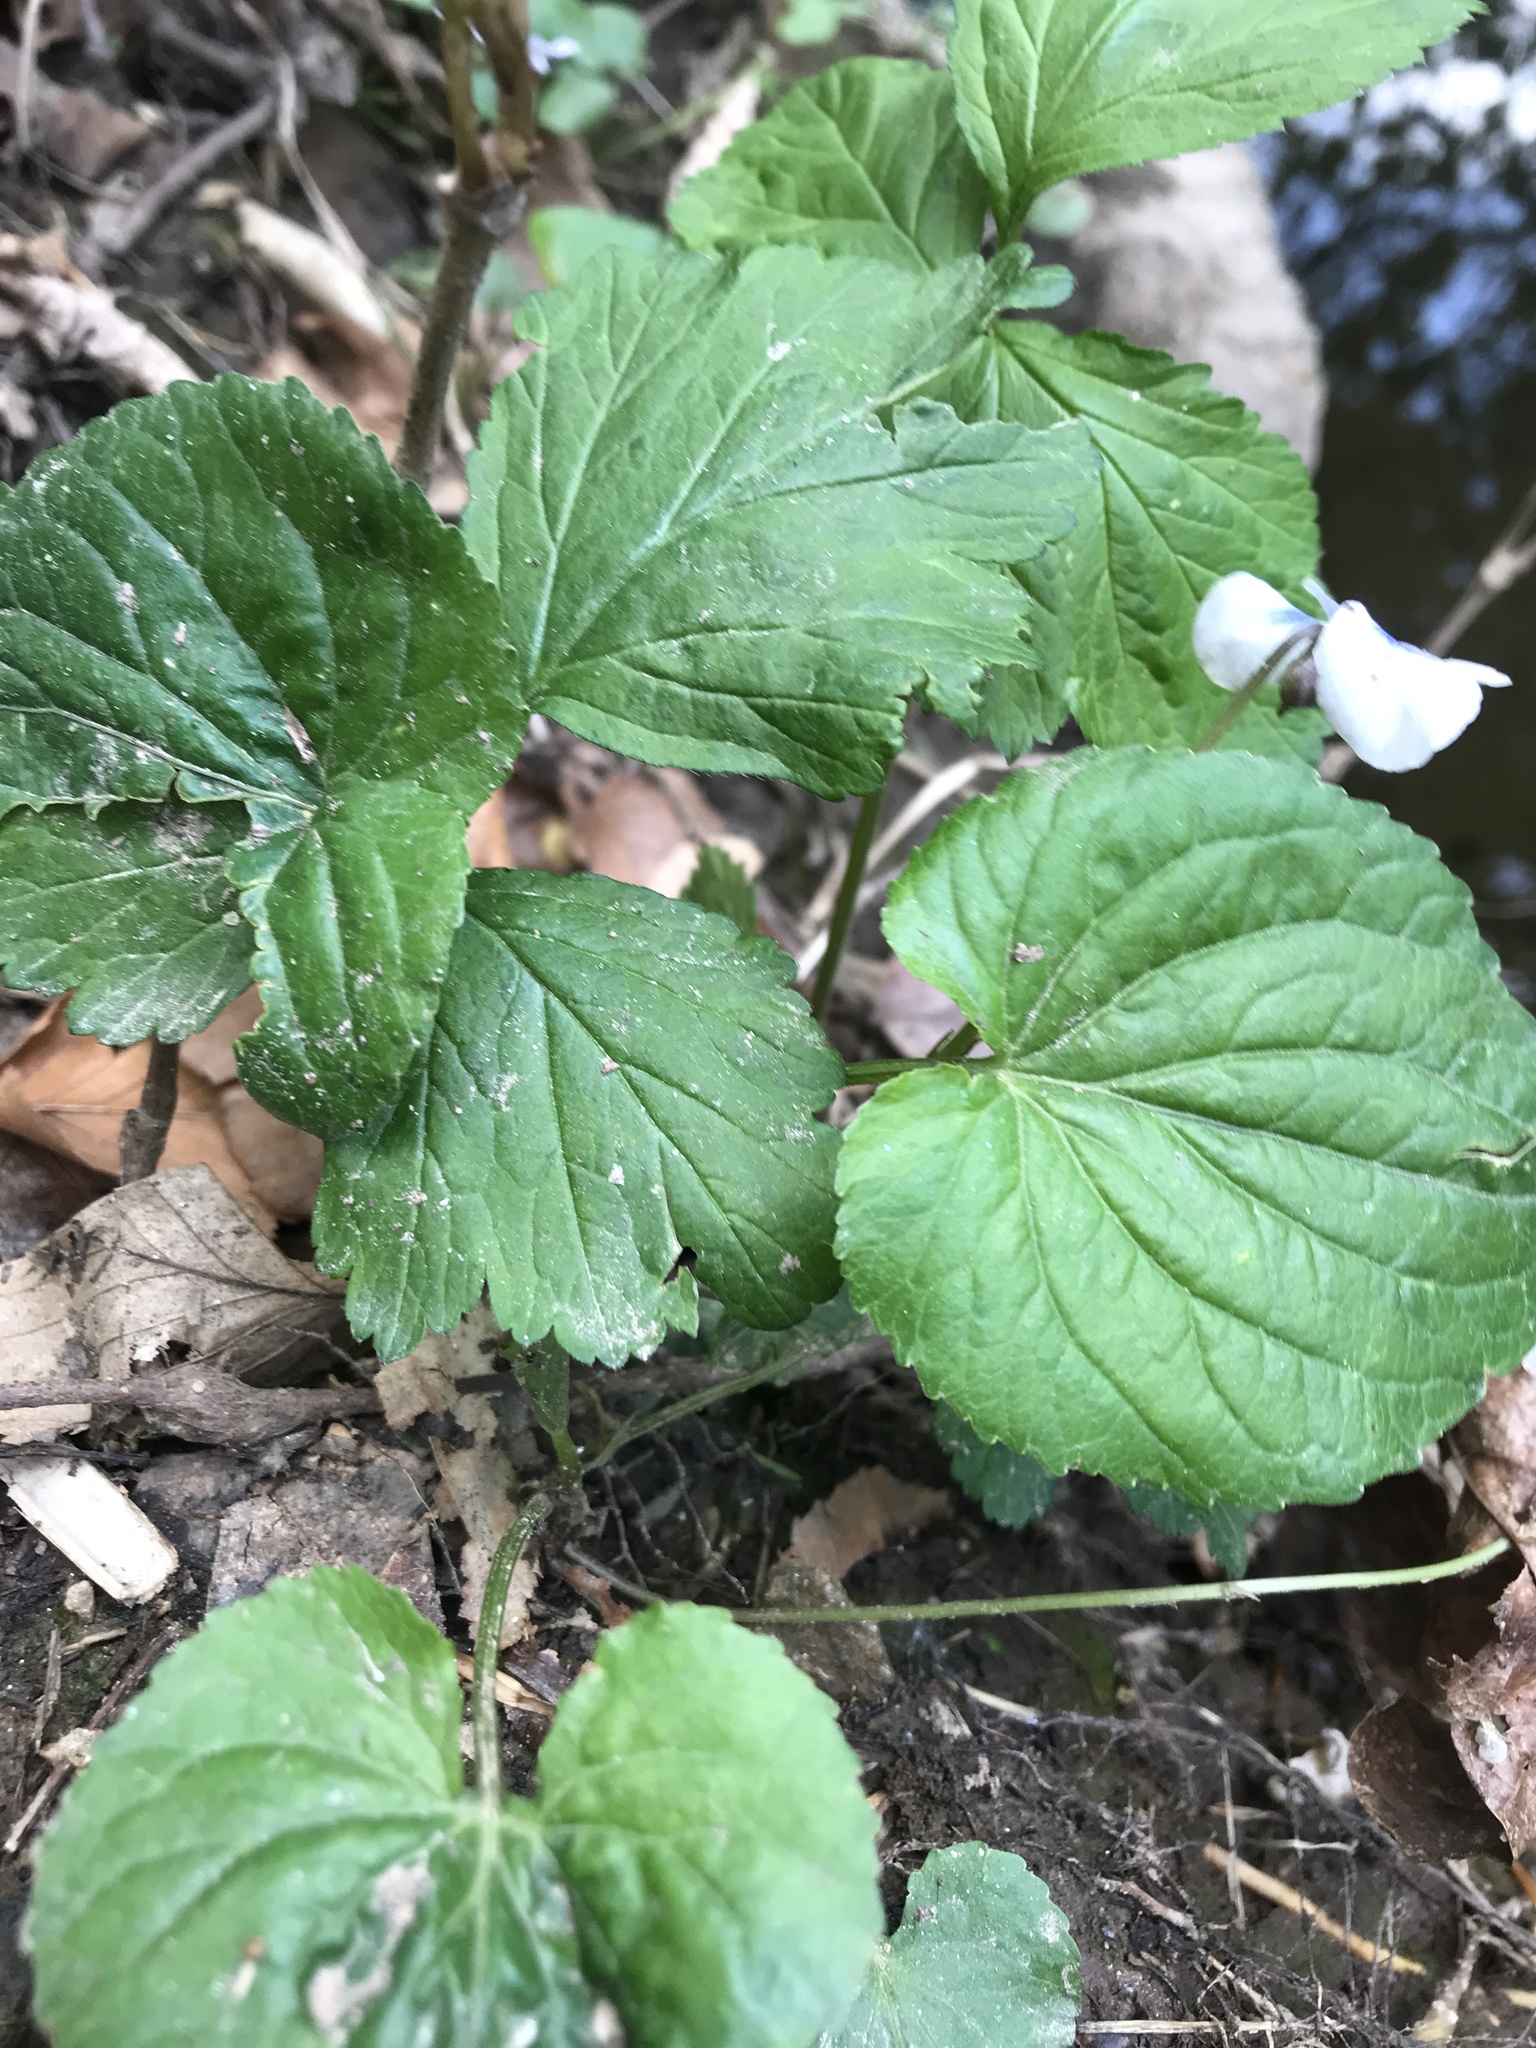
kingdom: Plantae
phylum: Tracheophyta
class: Magnoliopsida
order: Malpighiales
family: Violaceae
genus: Viola
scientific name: Viola sororia
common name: Dooryard violet
